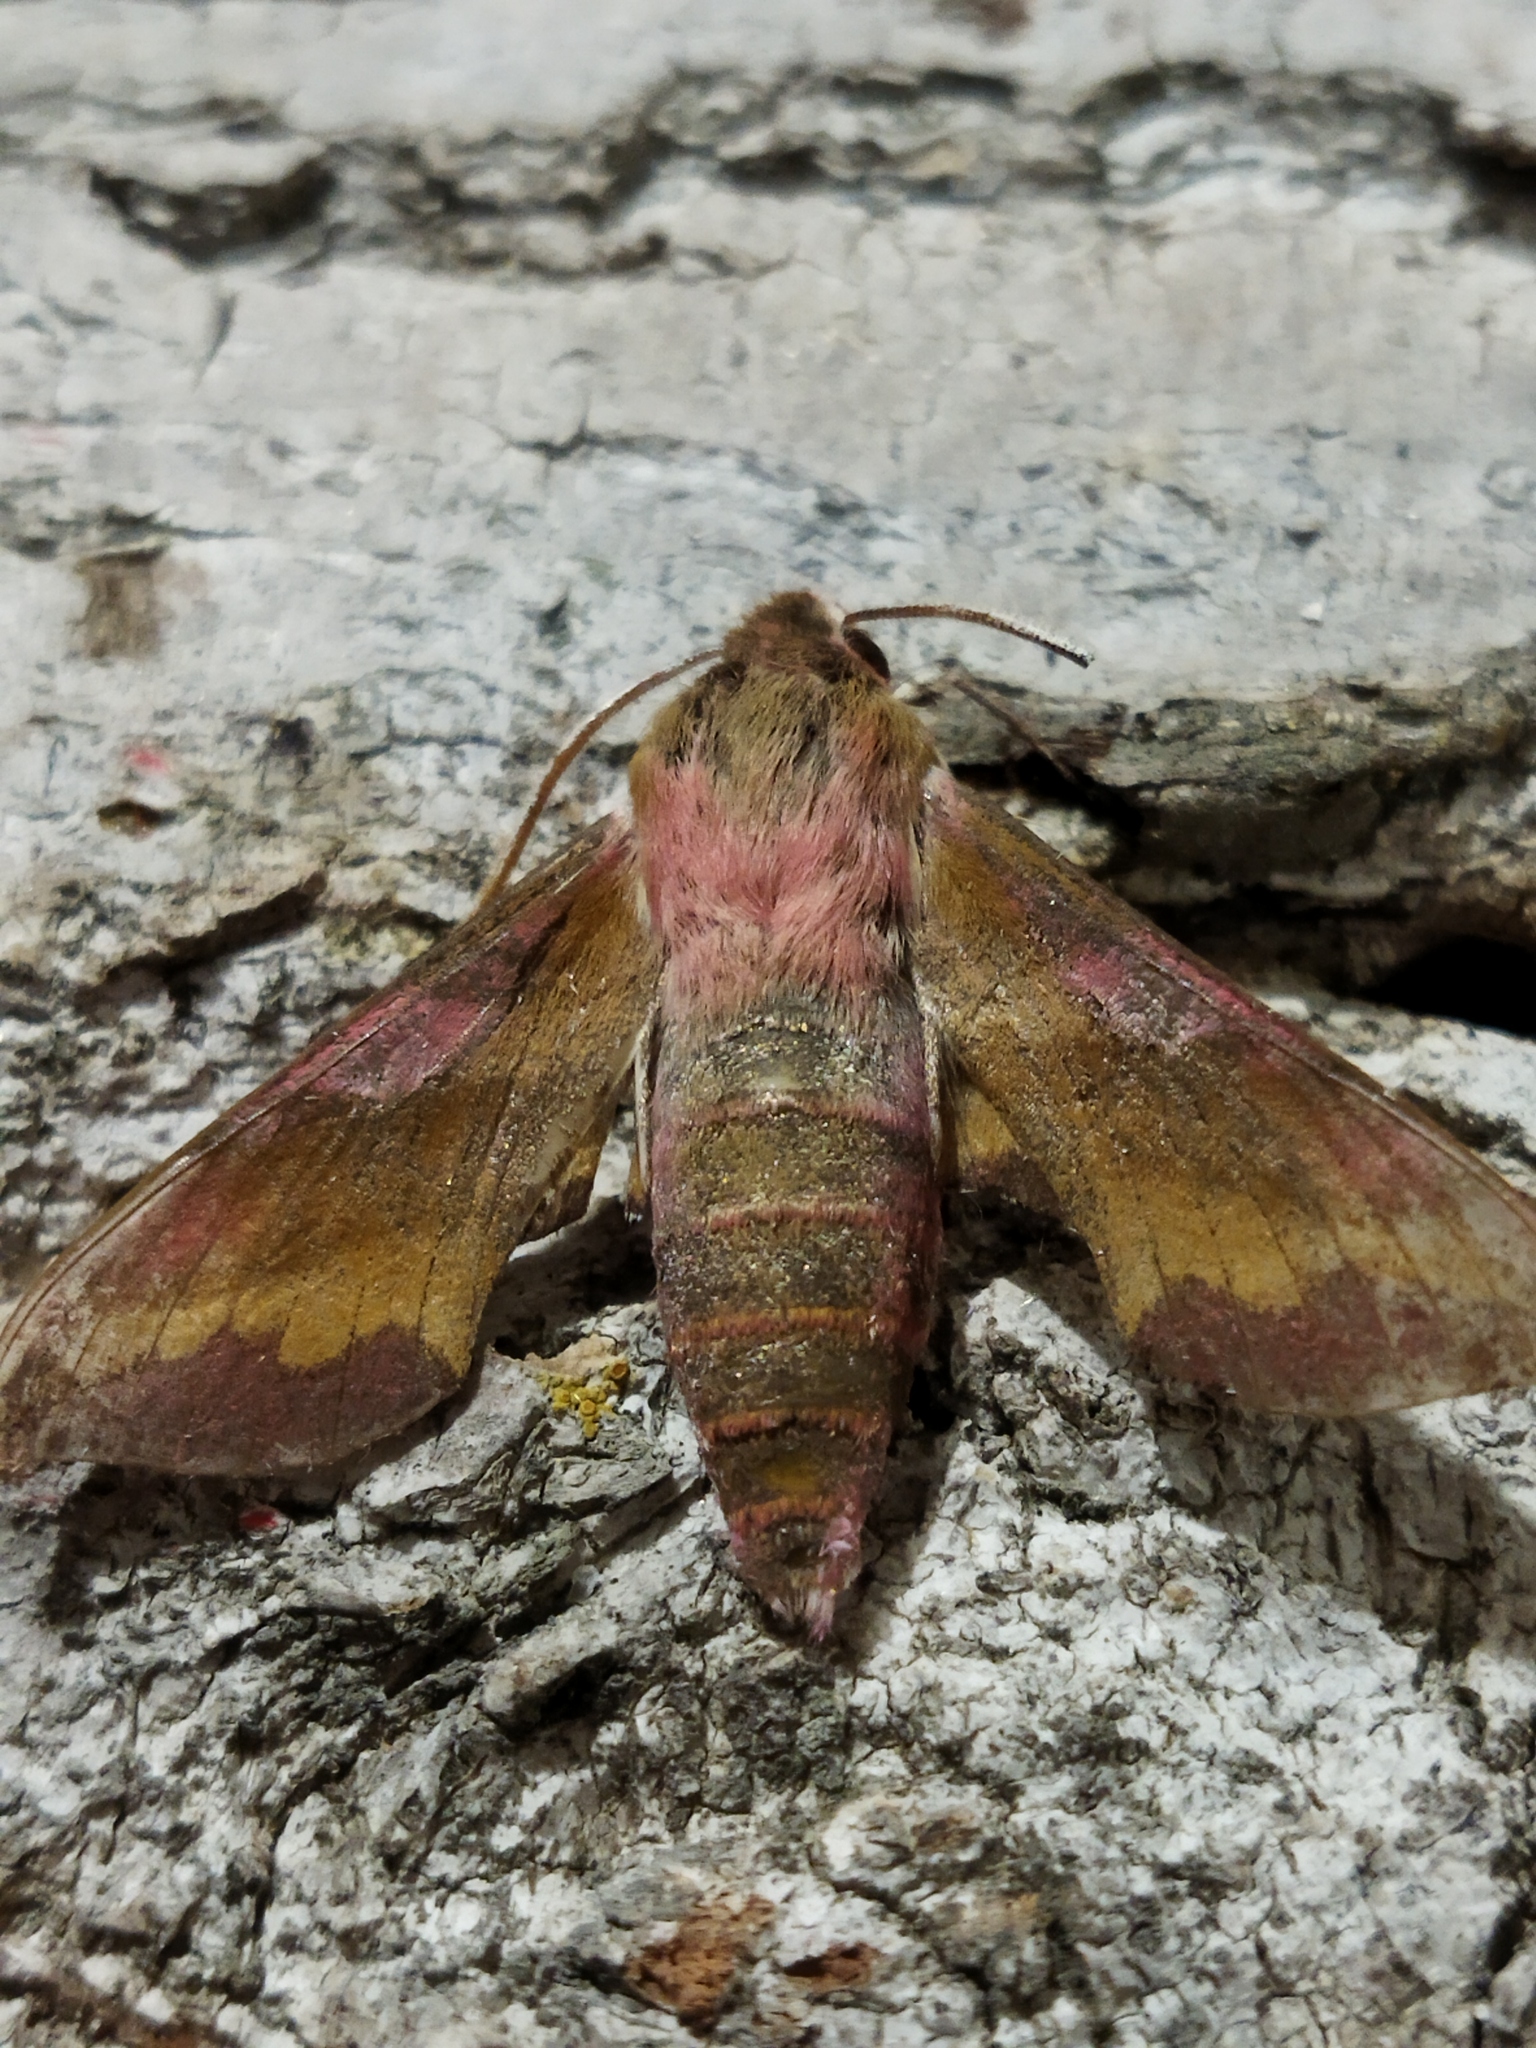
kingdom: Animalia
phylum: Arthropoda
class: Insecta
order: Lepidoptera
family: Sphingidae
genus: Deilephila
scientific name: Deilephila porcellus
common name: Small elephant hawk-moth
